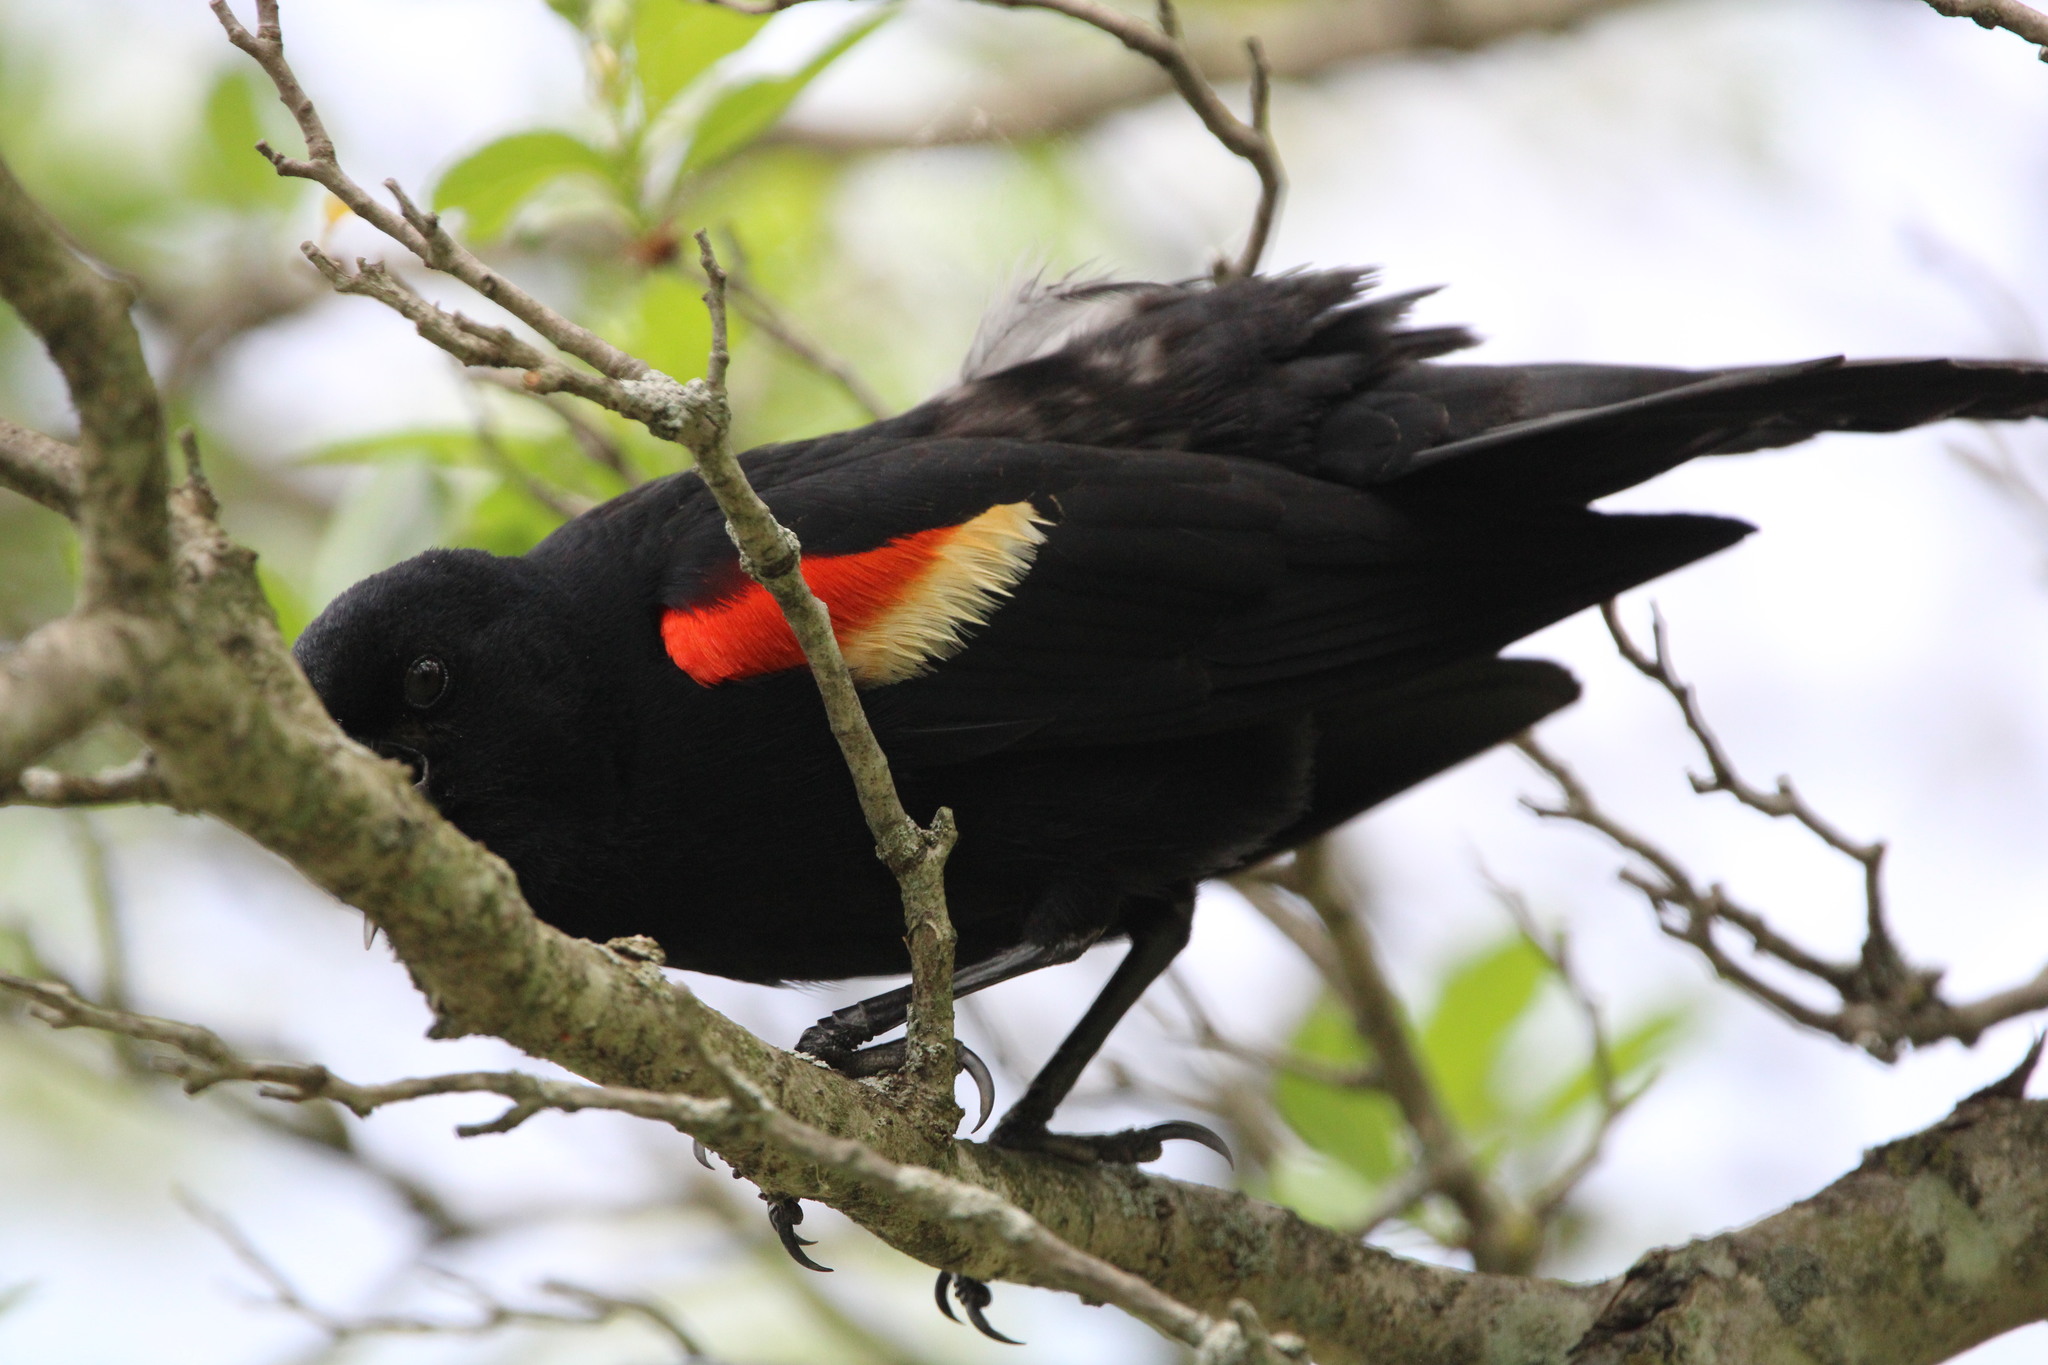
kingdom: Animalia
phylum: Chordata
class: Aves
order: Passeriformes
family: Icteridae
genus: Agelaius
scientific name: Agelaius phoeniceus
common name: Red-winged blackbird
